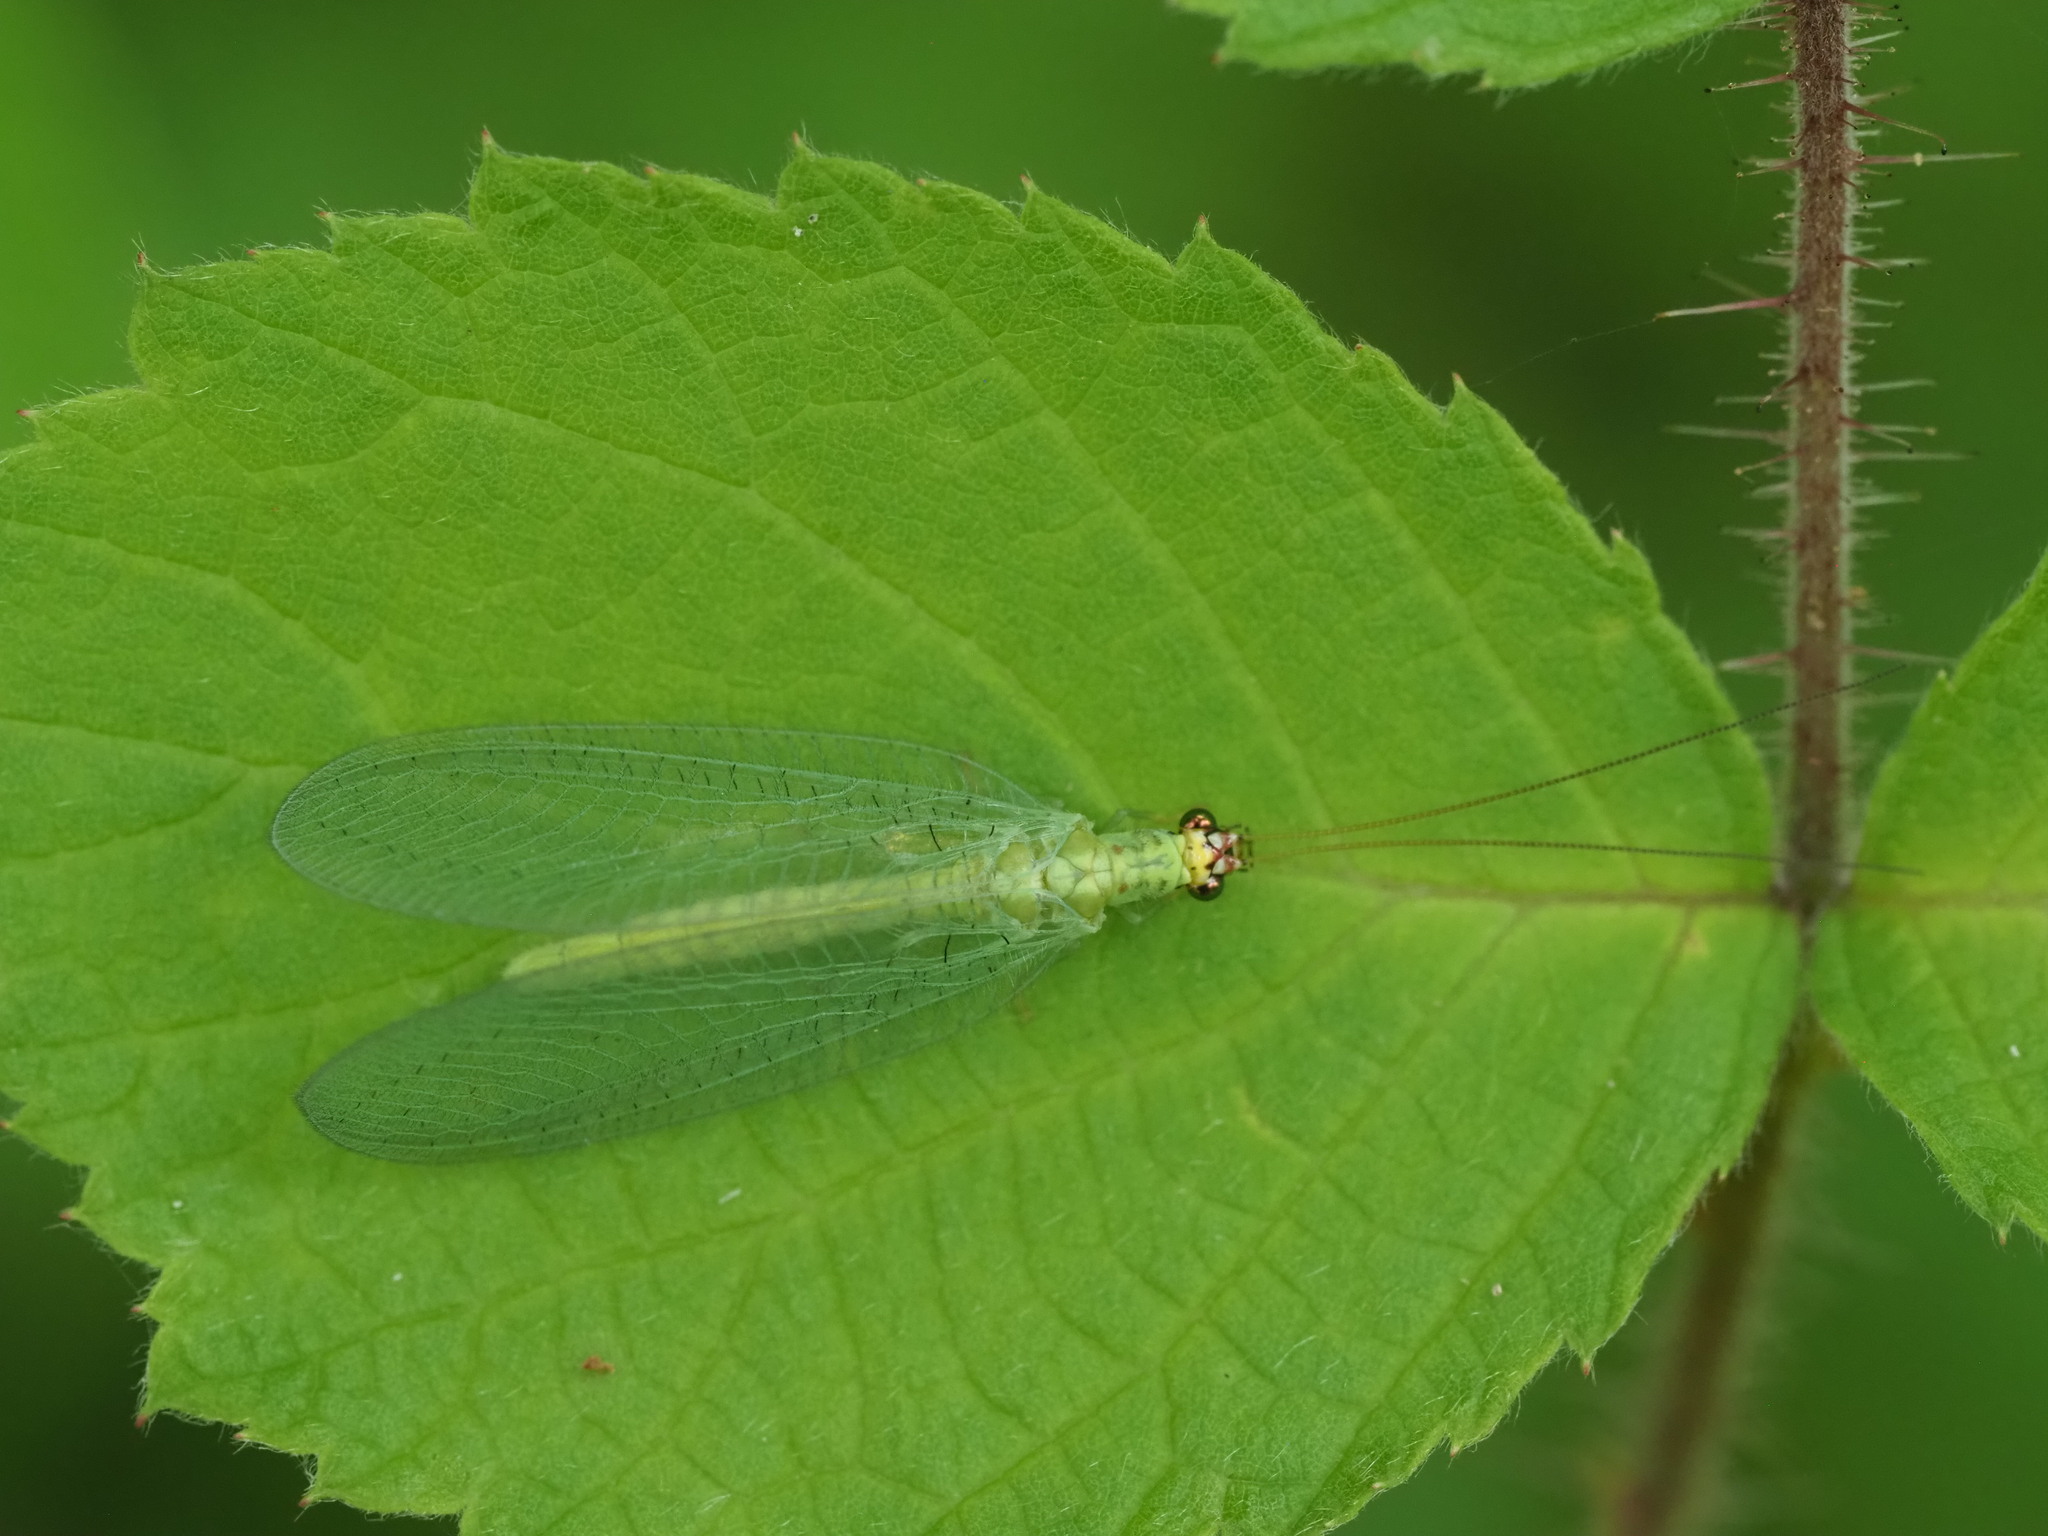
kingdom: Animalia
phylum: Arthropoda
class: Insecta
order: Neuroptera
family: Chrysopidae
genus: Chrysopa
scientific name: Chrysopa oculata
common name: Golden-eyed lacewing
